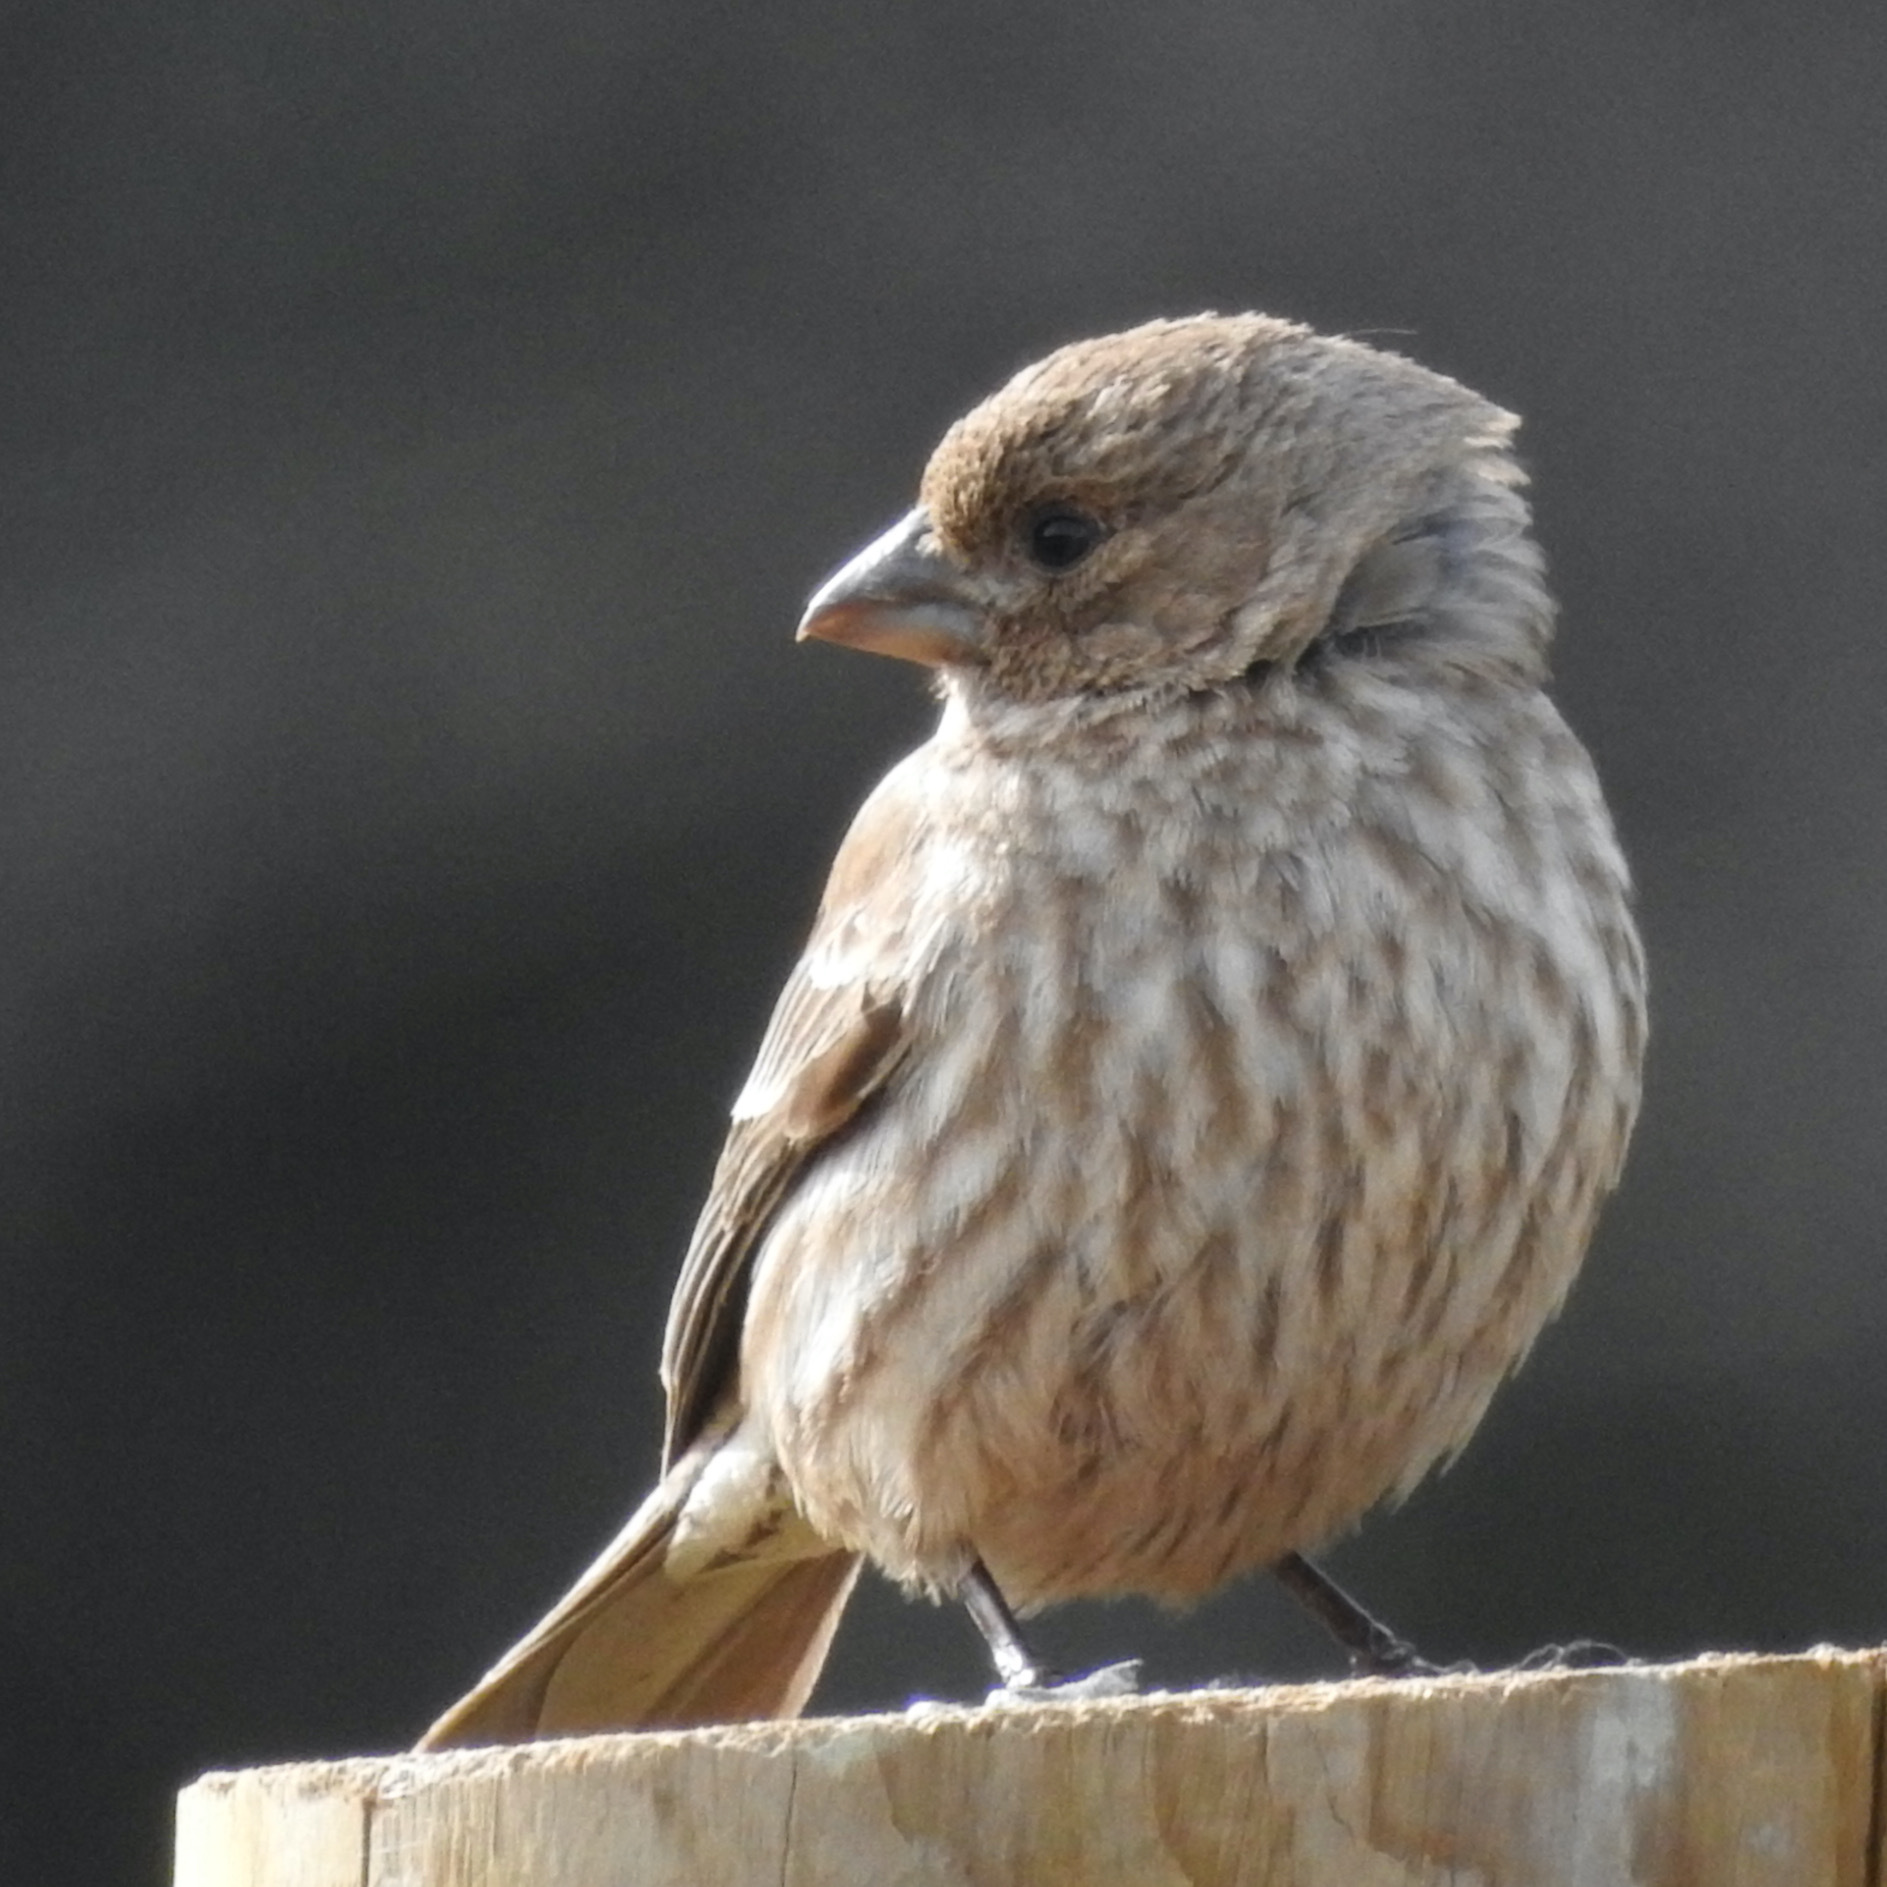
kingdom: Animalia
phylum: Chordata
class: Aves
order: Passeriformes
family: Fringillidae
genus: Haemorhous
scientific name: Haemorhous mexicanus
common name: House finch
